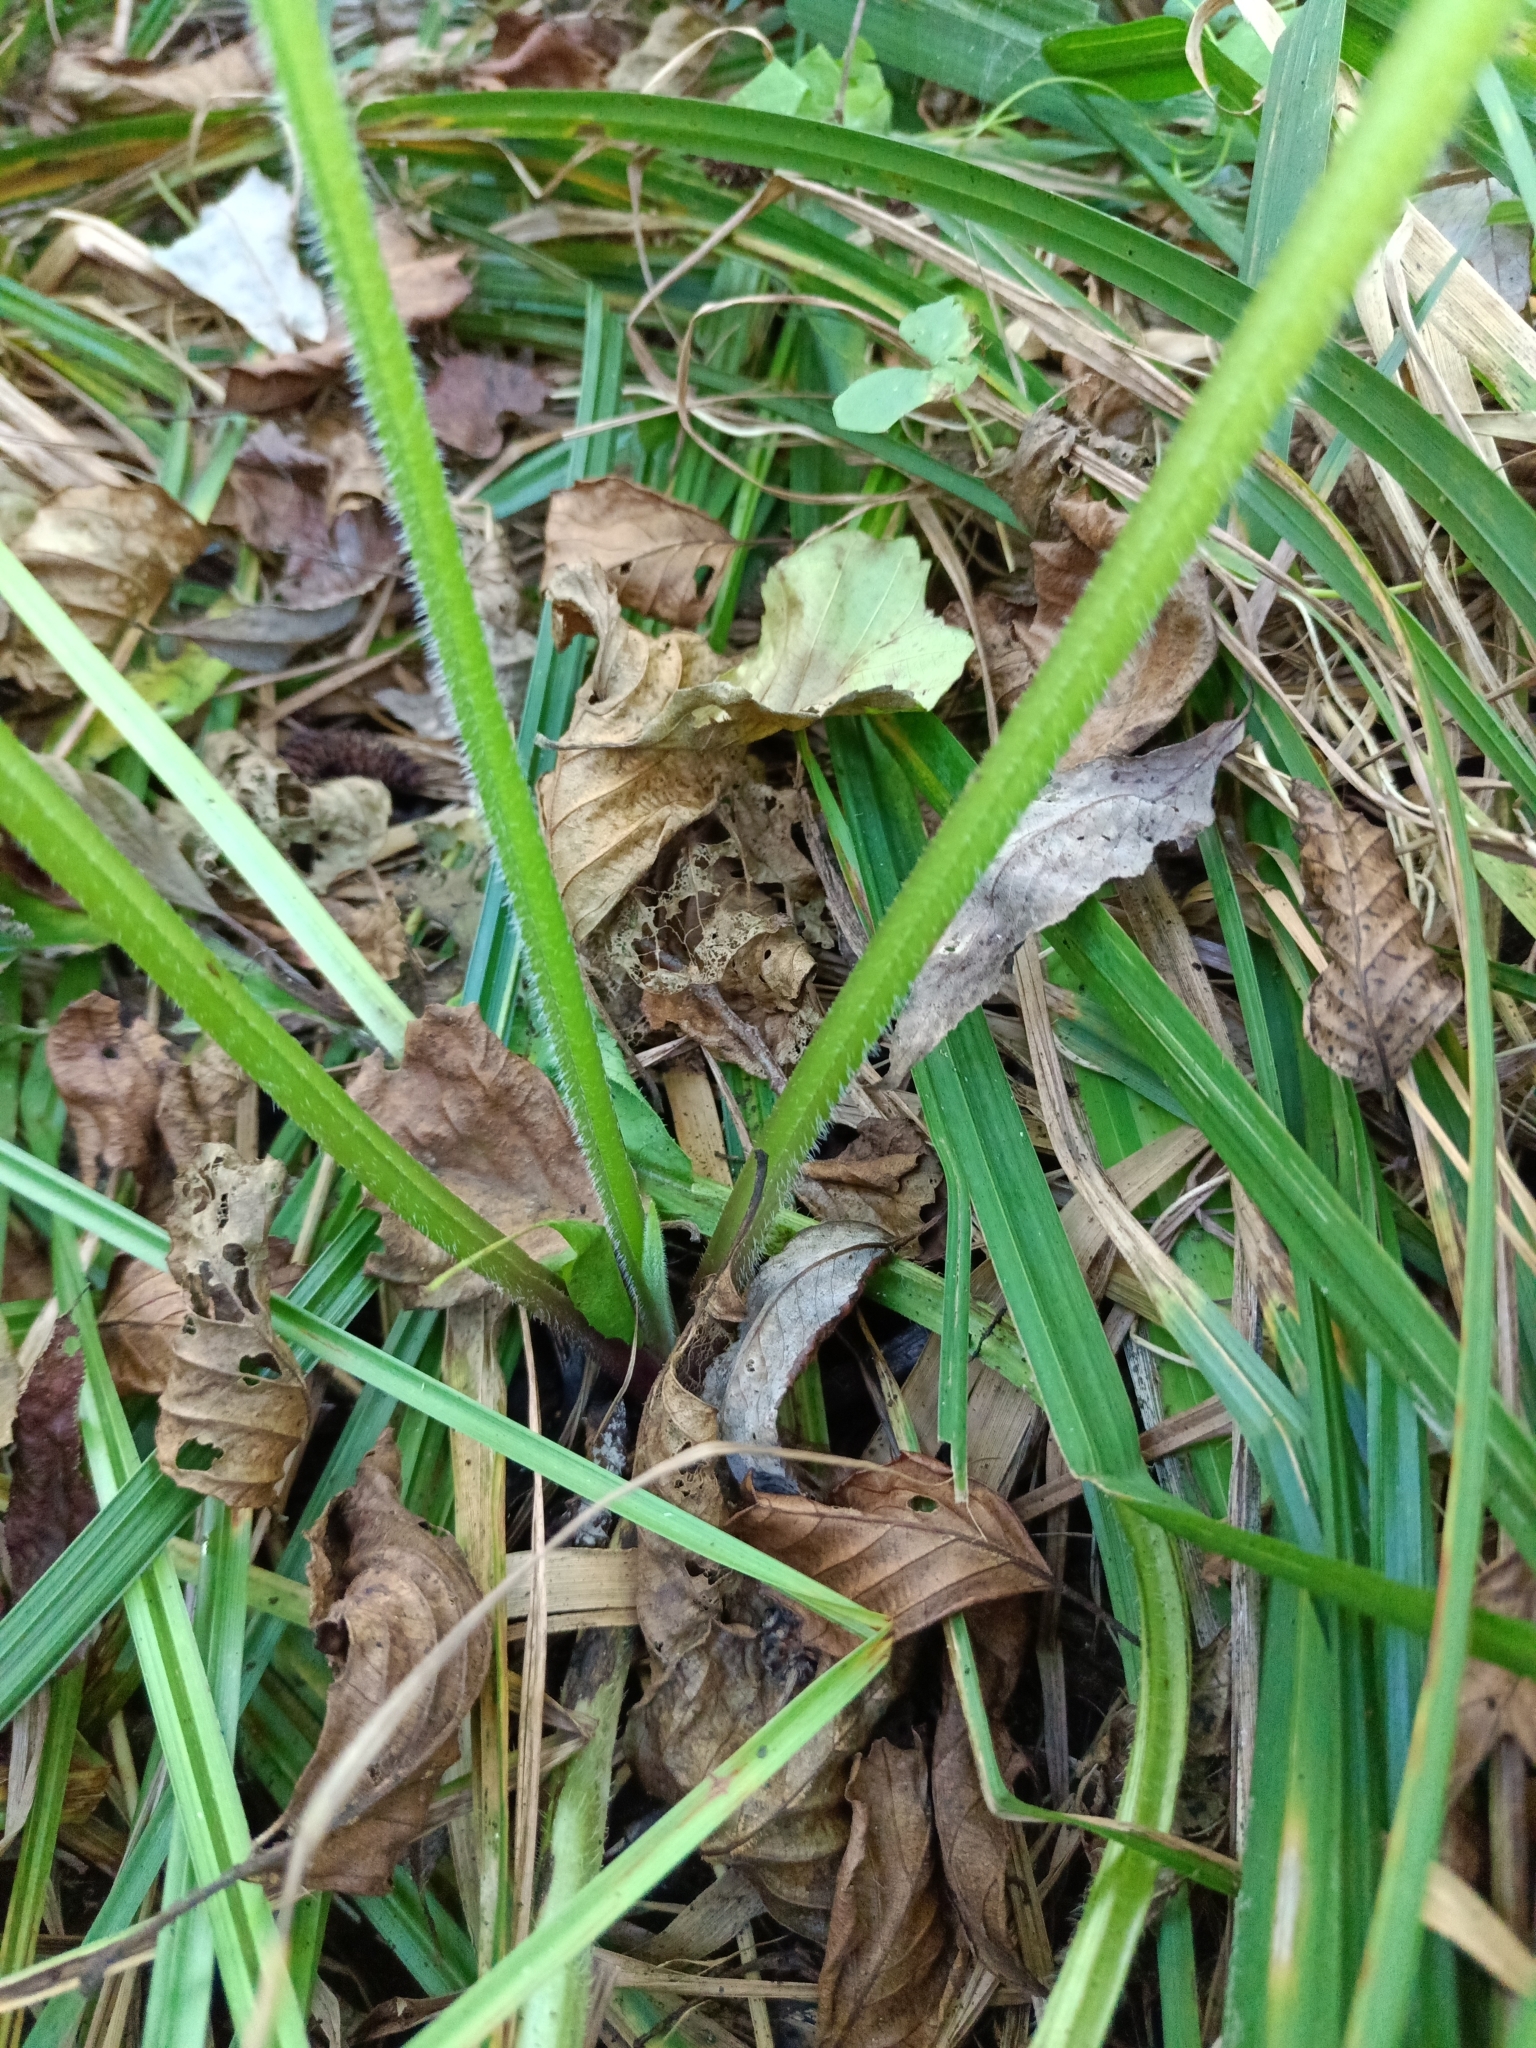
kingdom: Plantae
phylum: Tracheophyta
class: Magnoliopsida
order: Boraginales
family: Boraginaceae
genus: Symphytum
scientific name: Symphytum officinale
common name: Common comfrey
